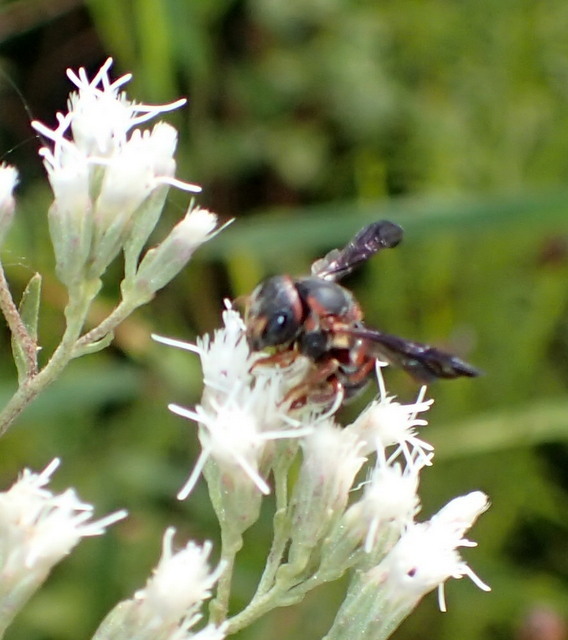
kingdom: Animalia
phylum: Arthropoda
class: Insecta
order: Hymenoptera
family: Megachilidae
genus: Anthidiellum
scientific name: Anthidiellum perplexum
